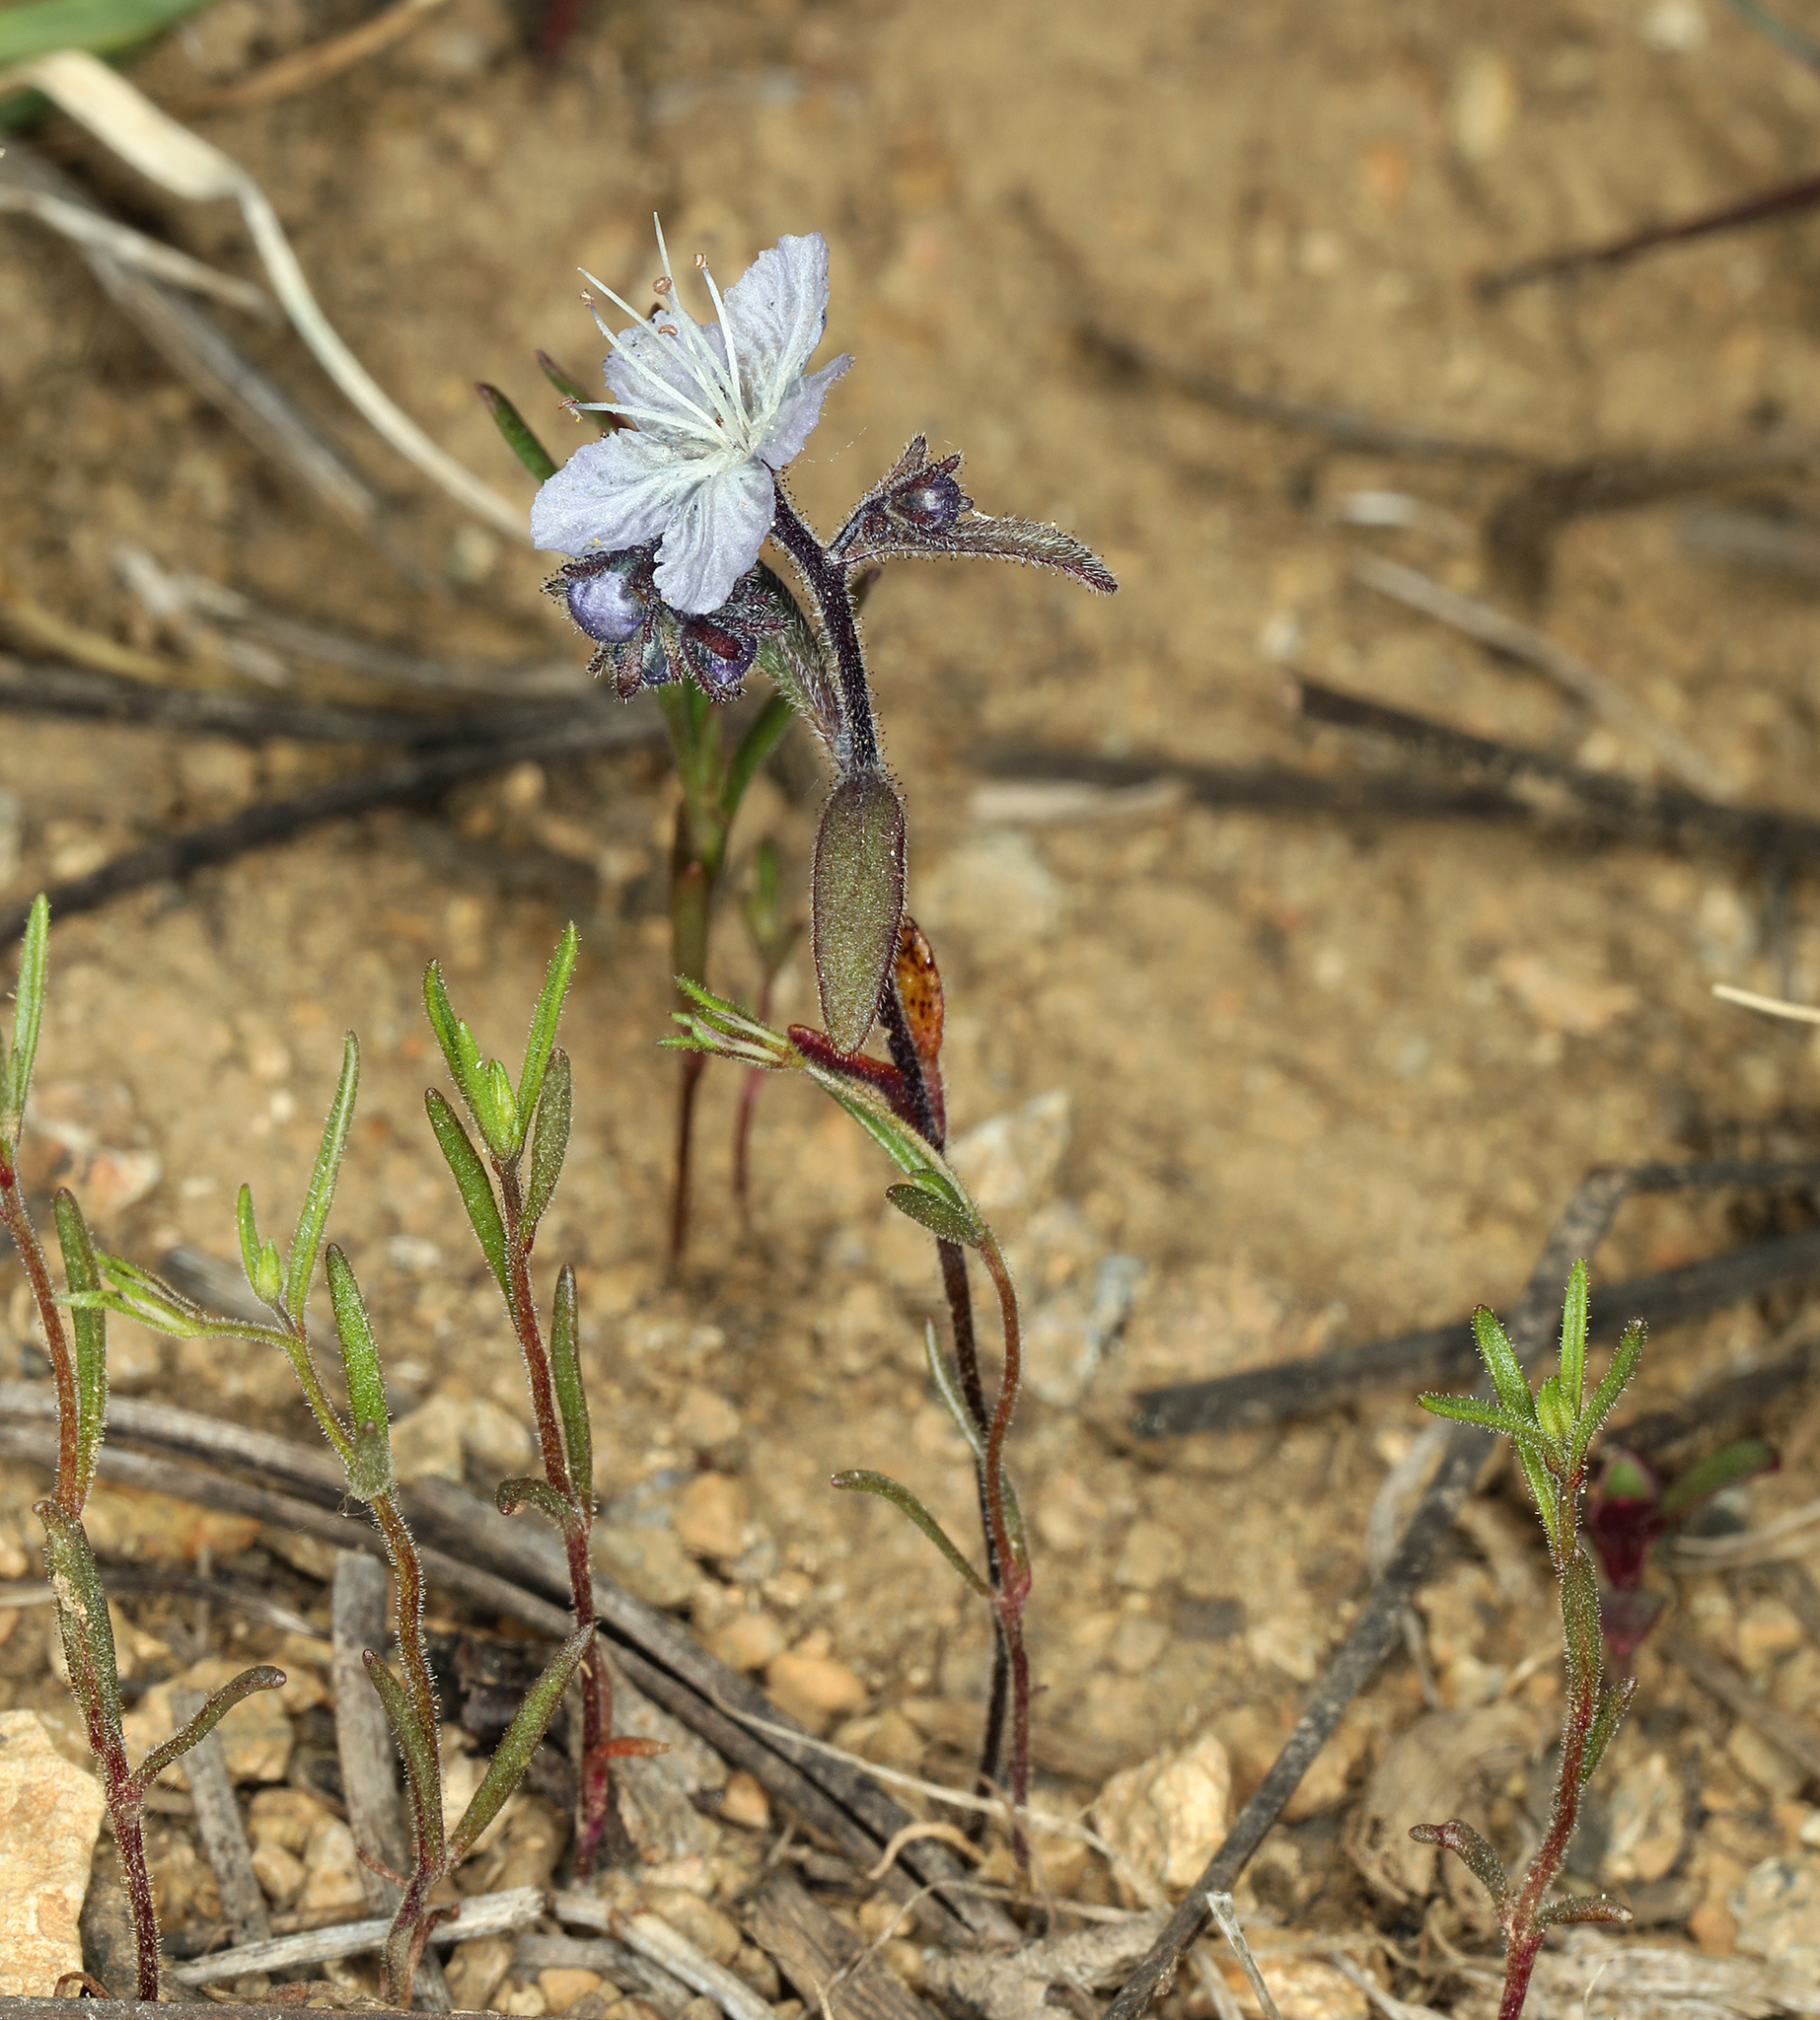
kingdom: Plantae
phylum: Tracheophyta
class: Magnoliopsida
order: Boraginales
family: Hydrophyllaceae
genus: Phacelia
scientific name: Phacelia pringlei
